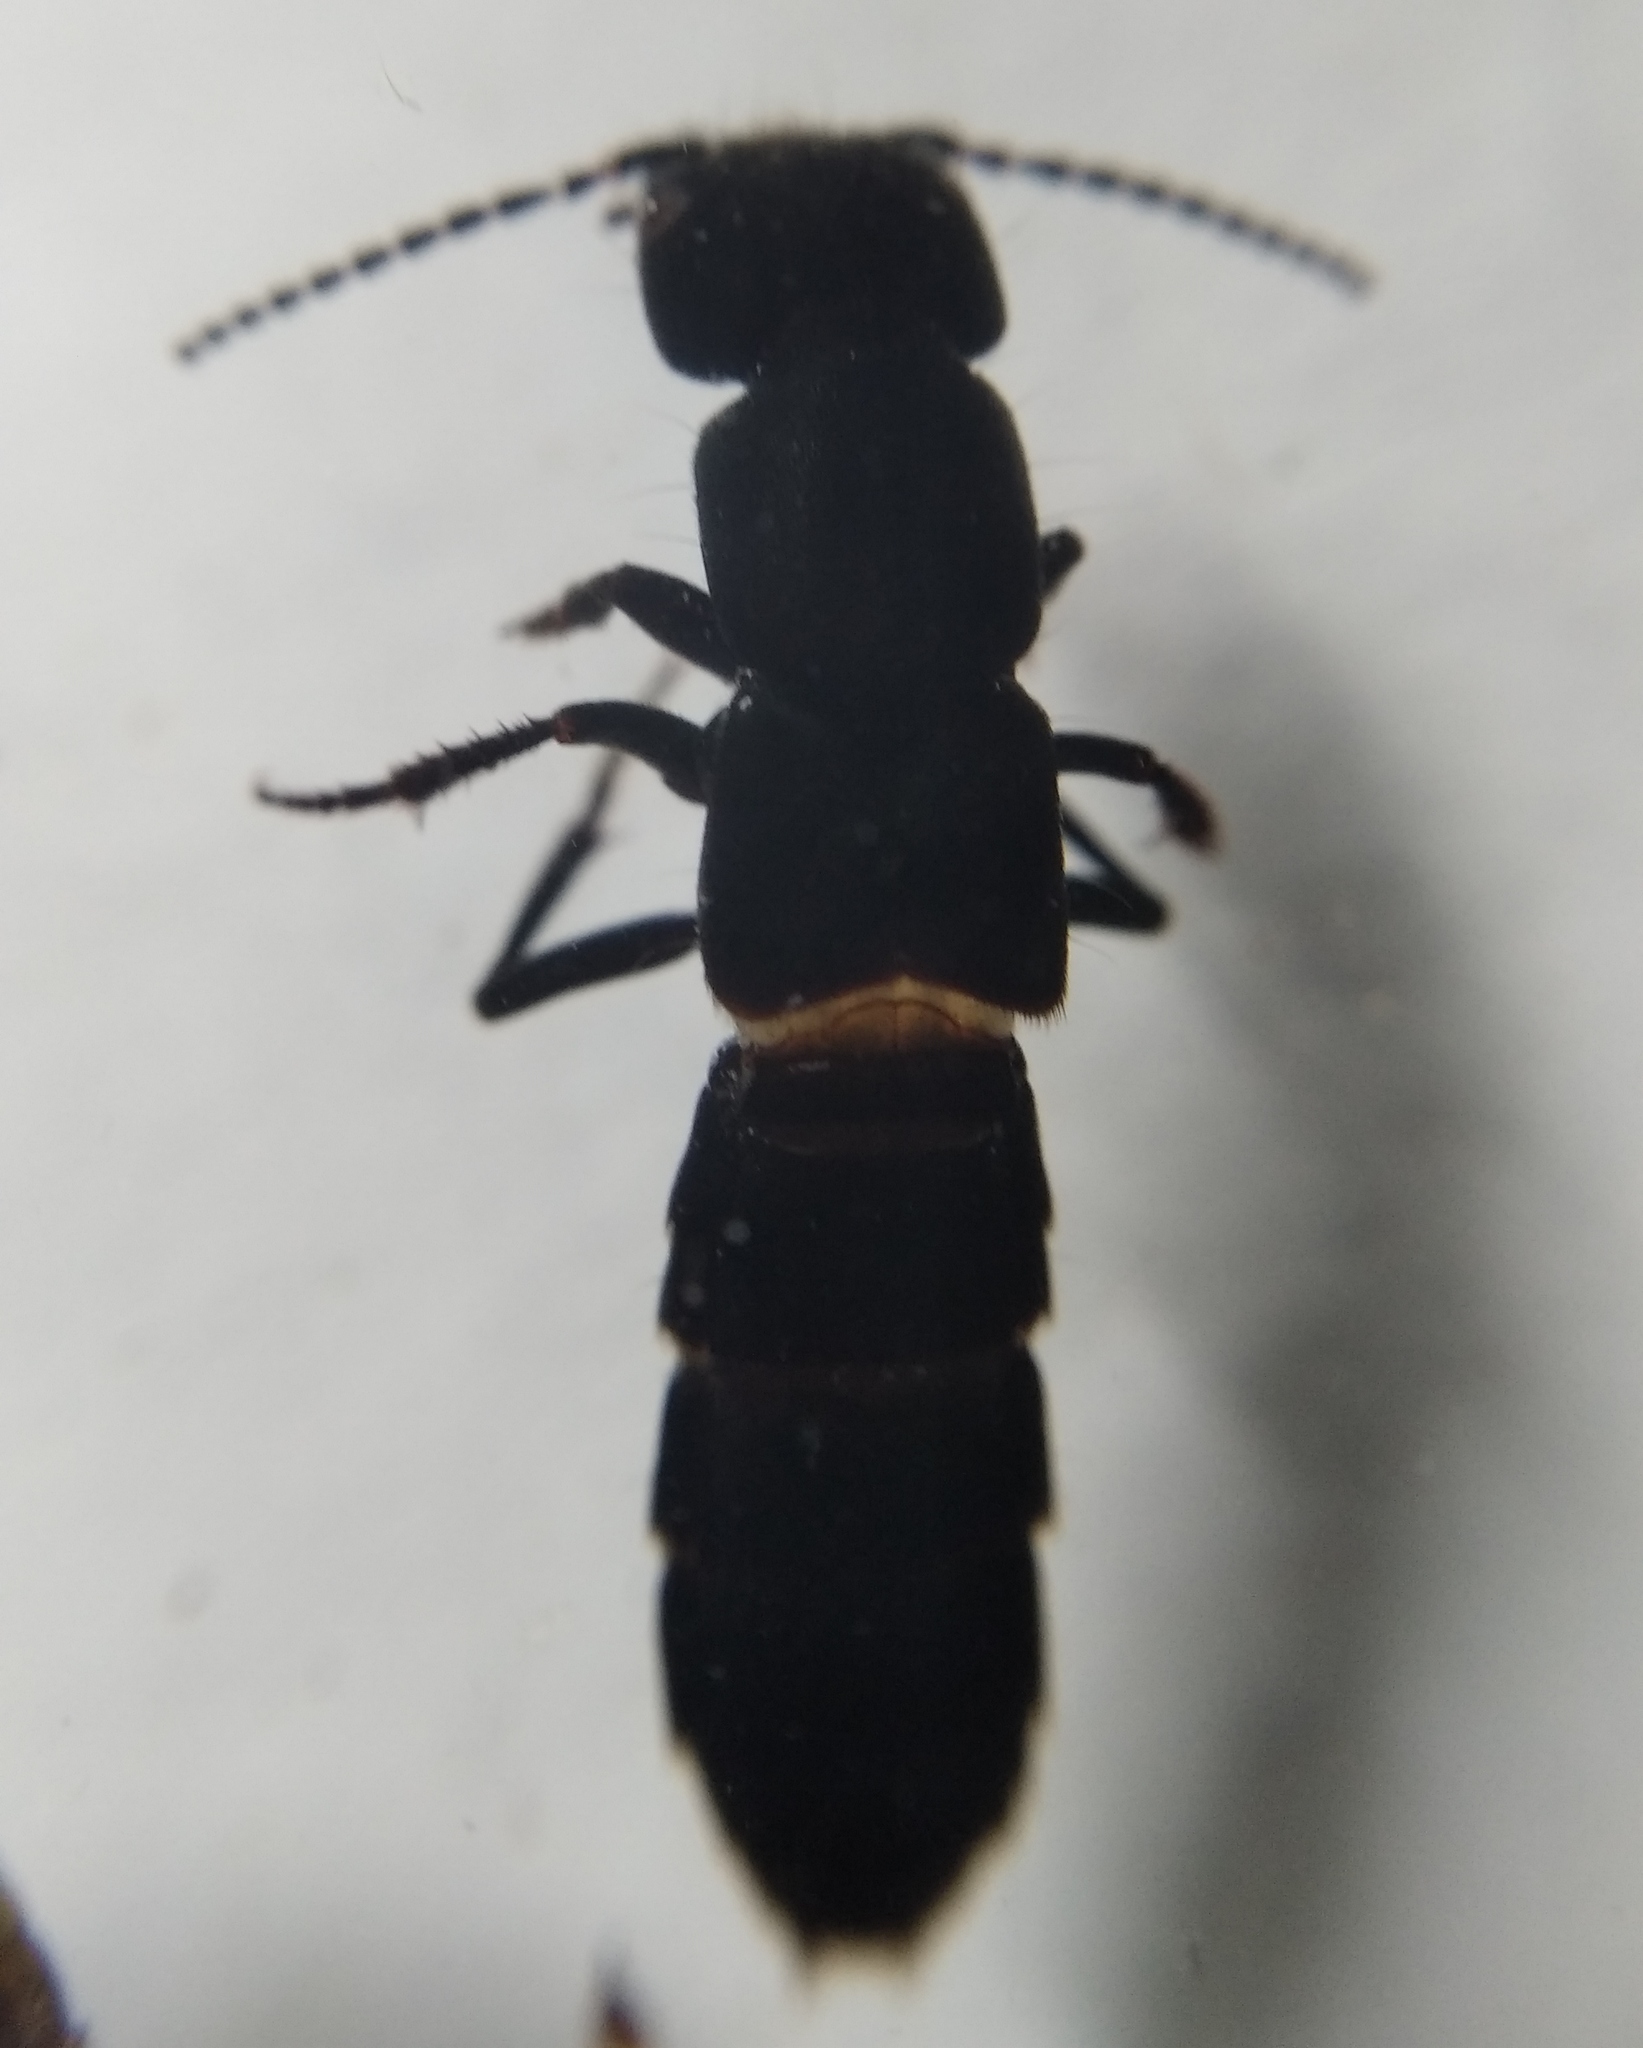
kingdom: Animalia
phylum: Arthropoda
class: Insecta
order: Coleoptera
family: Staphylinidae
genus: Ocypus
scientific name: Ocypus nitens
